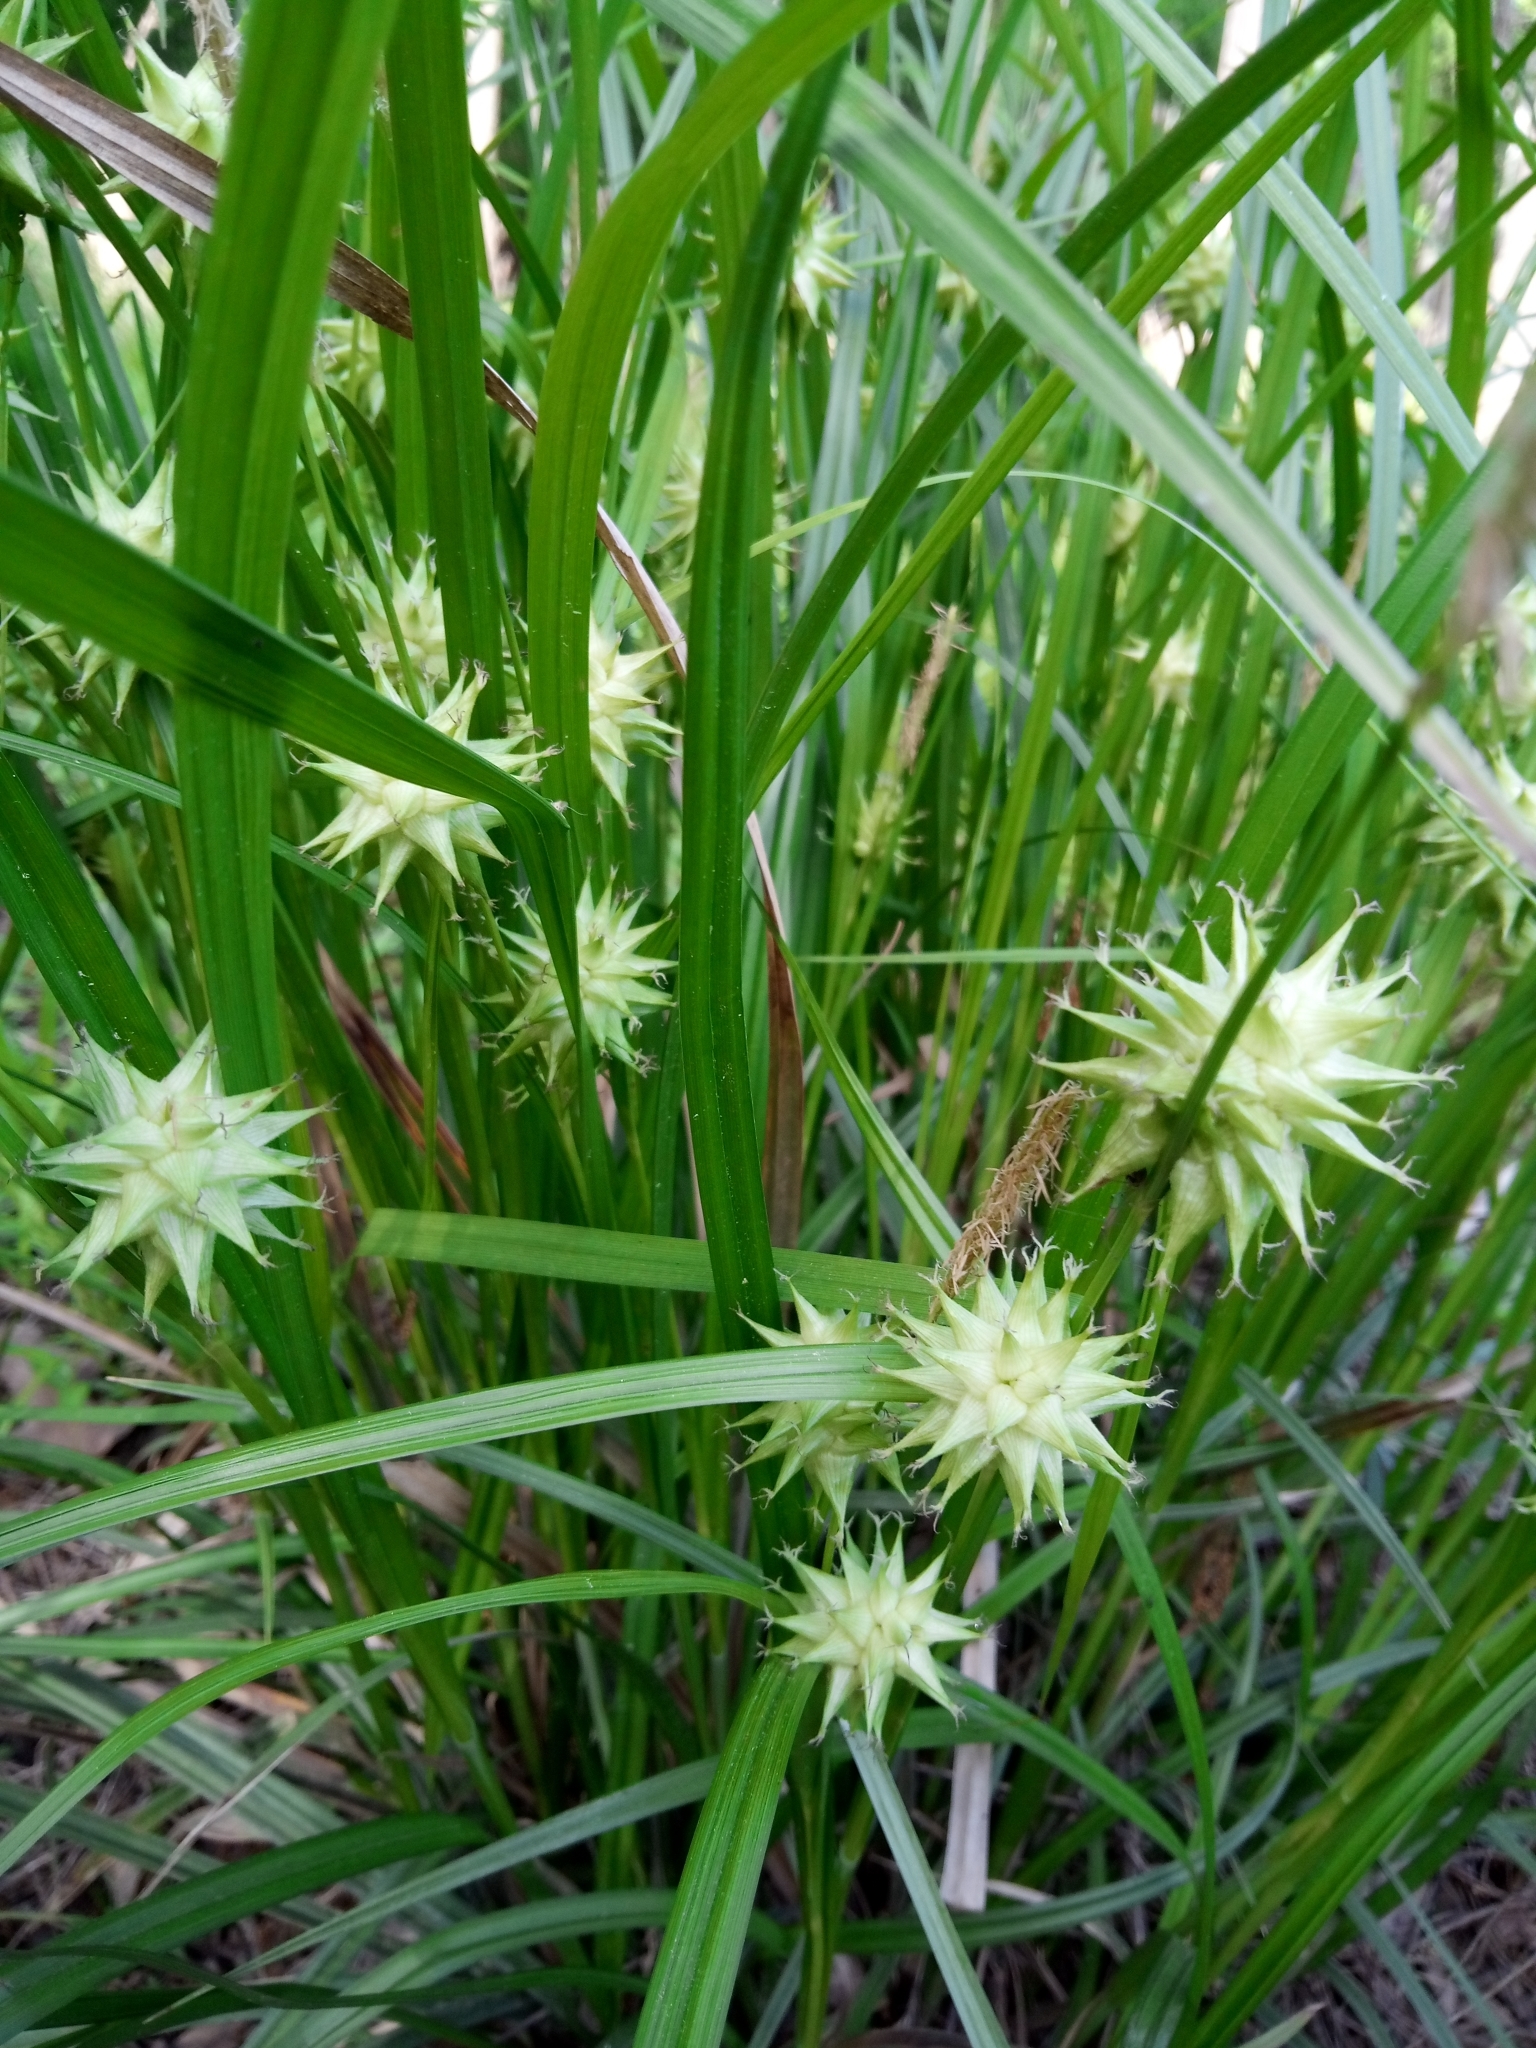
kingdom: Plantae
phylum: Tracheophyta
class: Liliopsida
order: Poales
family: Cyperaceae
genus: Carex
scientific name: Carex grayi
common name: Asa gray's sedge
